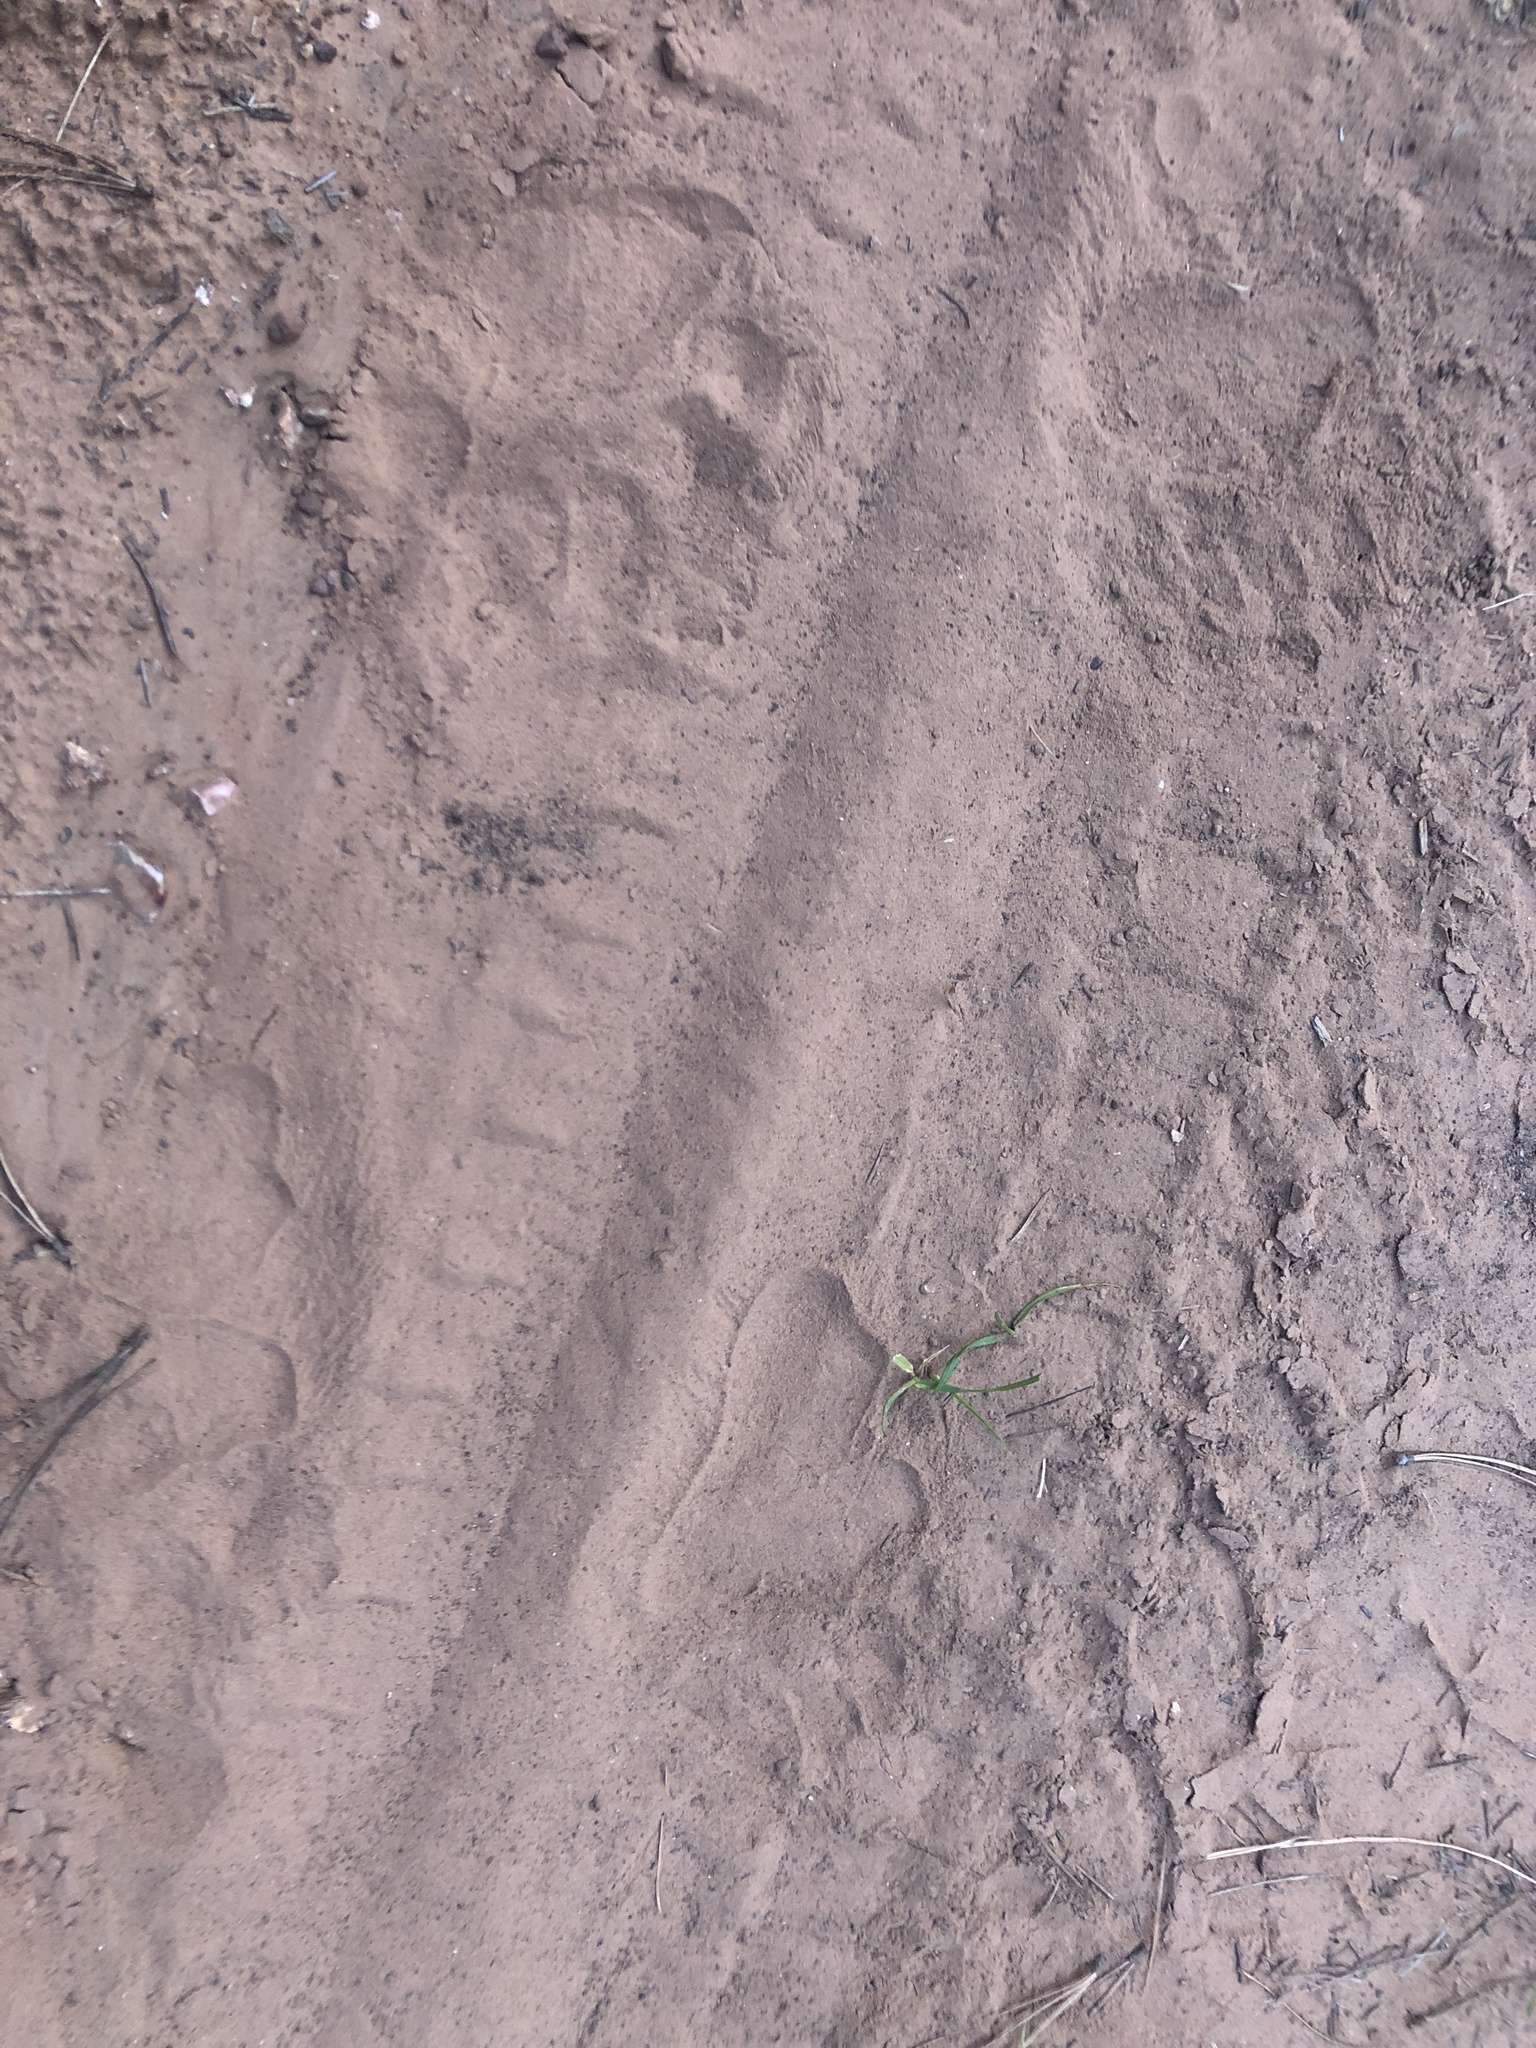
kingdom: Animalia
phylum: Chordata
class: Mammalia
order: Carnivora
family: Ursidae
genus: Ursus
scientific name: Ursus americanus
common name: American black bear
